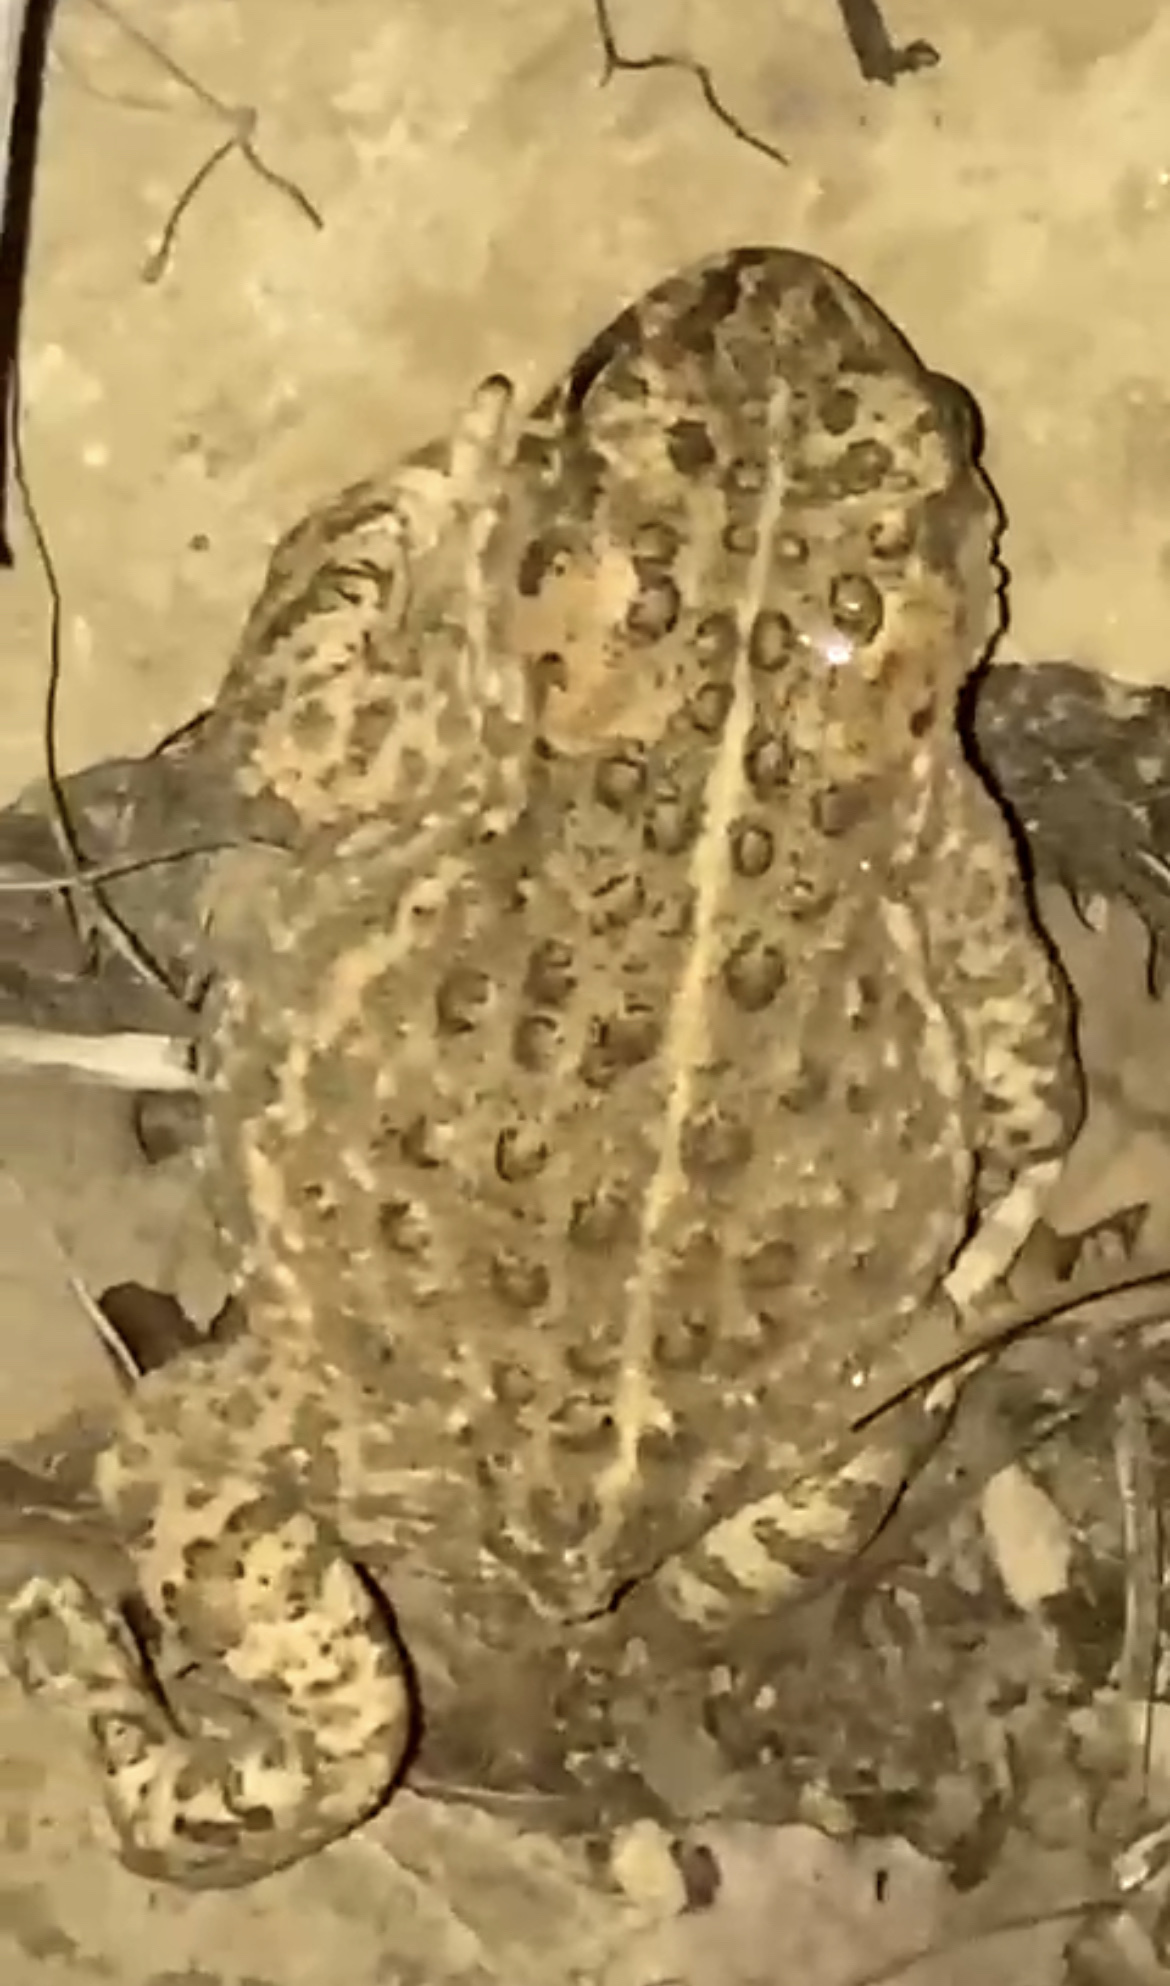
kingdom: Animalia
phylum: Chordata
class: Amphibia
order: Anura
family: Bufonidae
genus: Epidalea
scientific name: Epidalea calamita
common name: Natterjack toad
